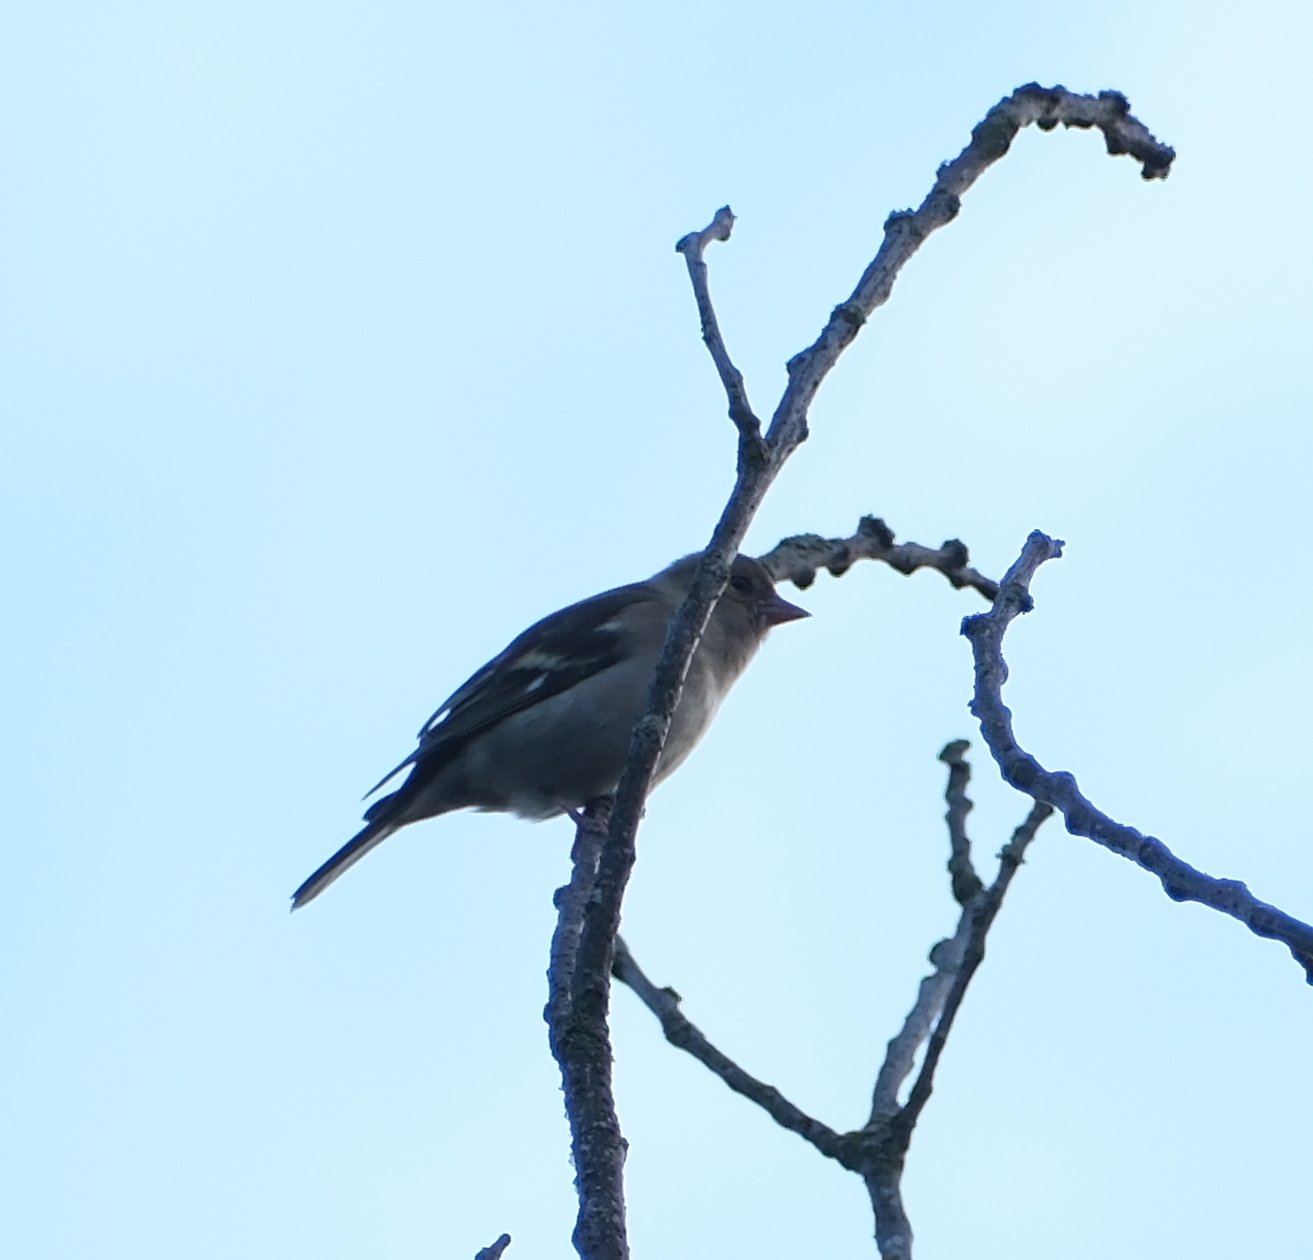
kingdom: Animalia
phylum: Chordata
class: Aves
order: Passeriformes
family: Fringillidae
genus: Fringilla
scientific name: Fringilla coelebs
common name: Common chaffinch
